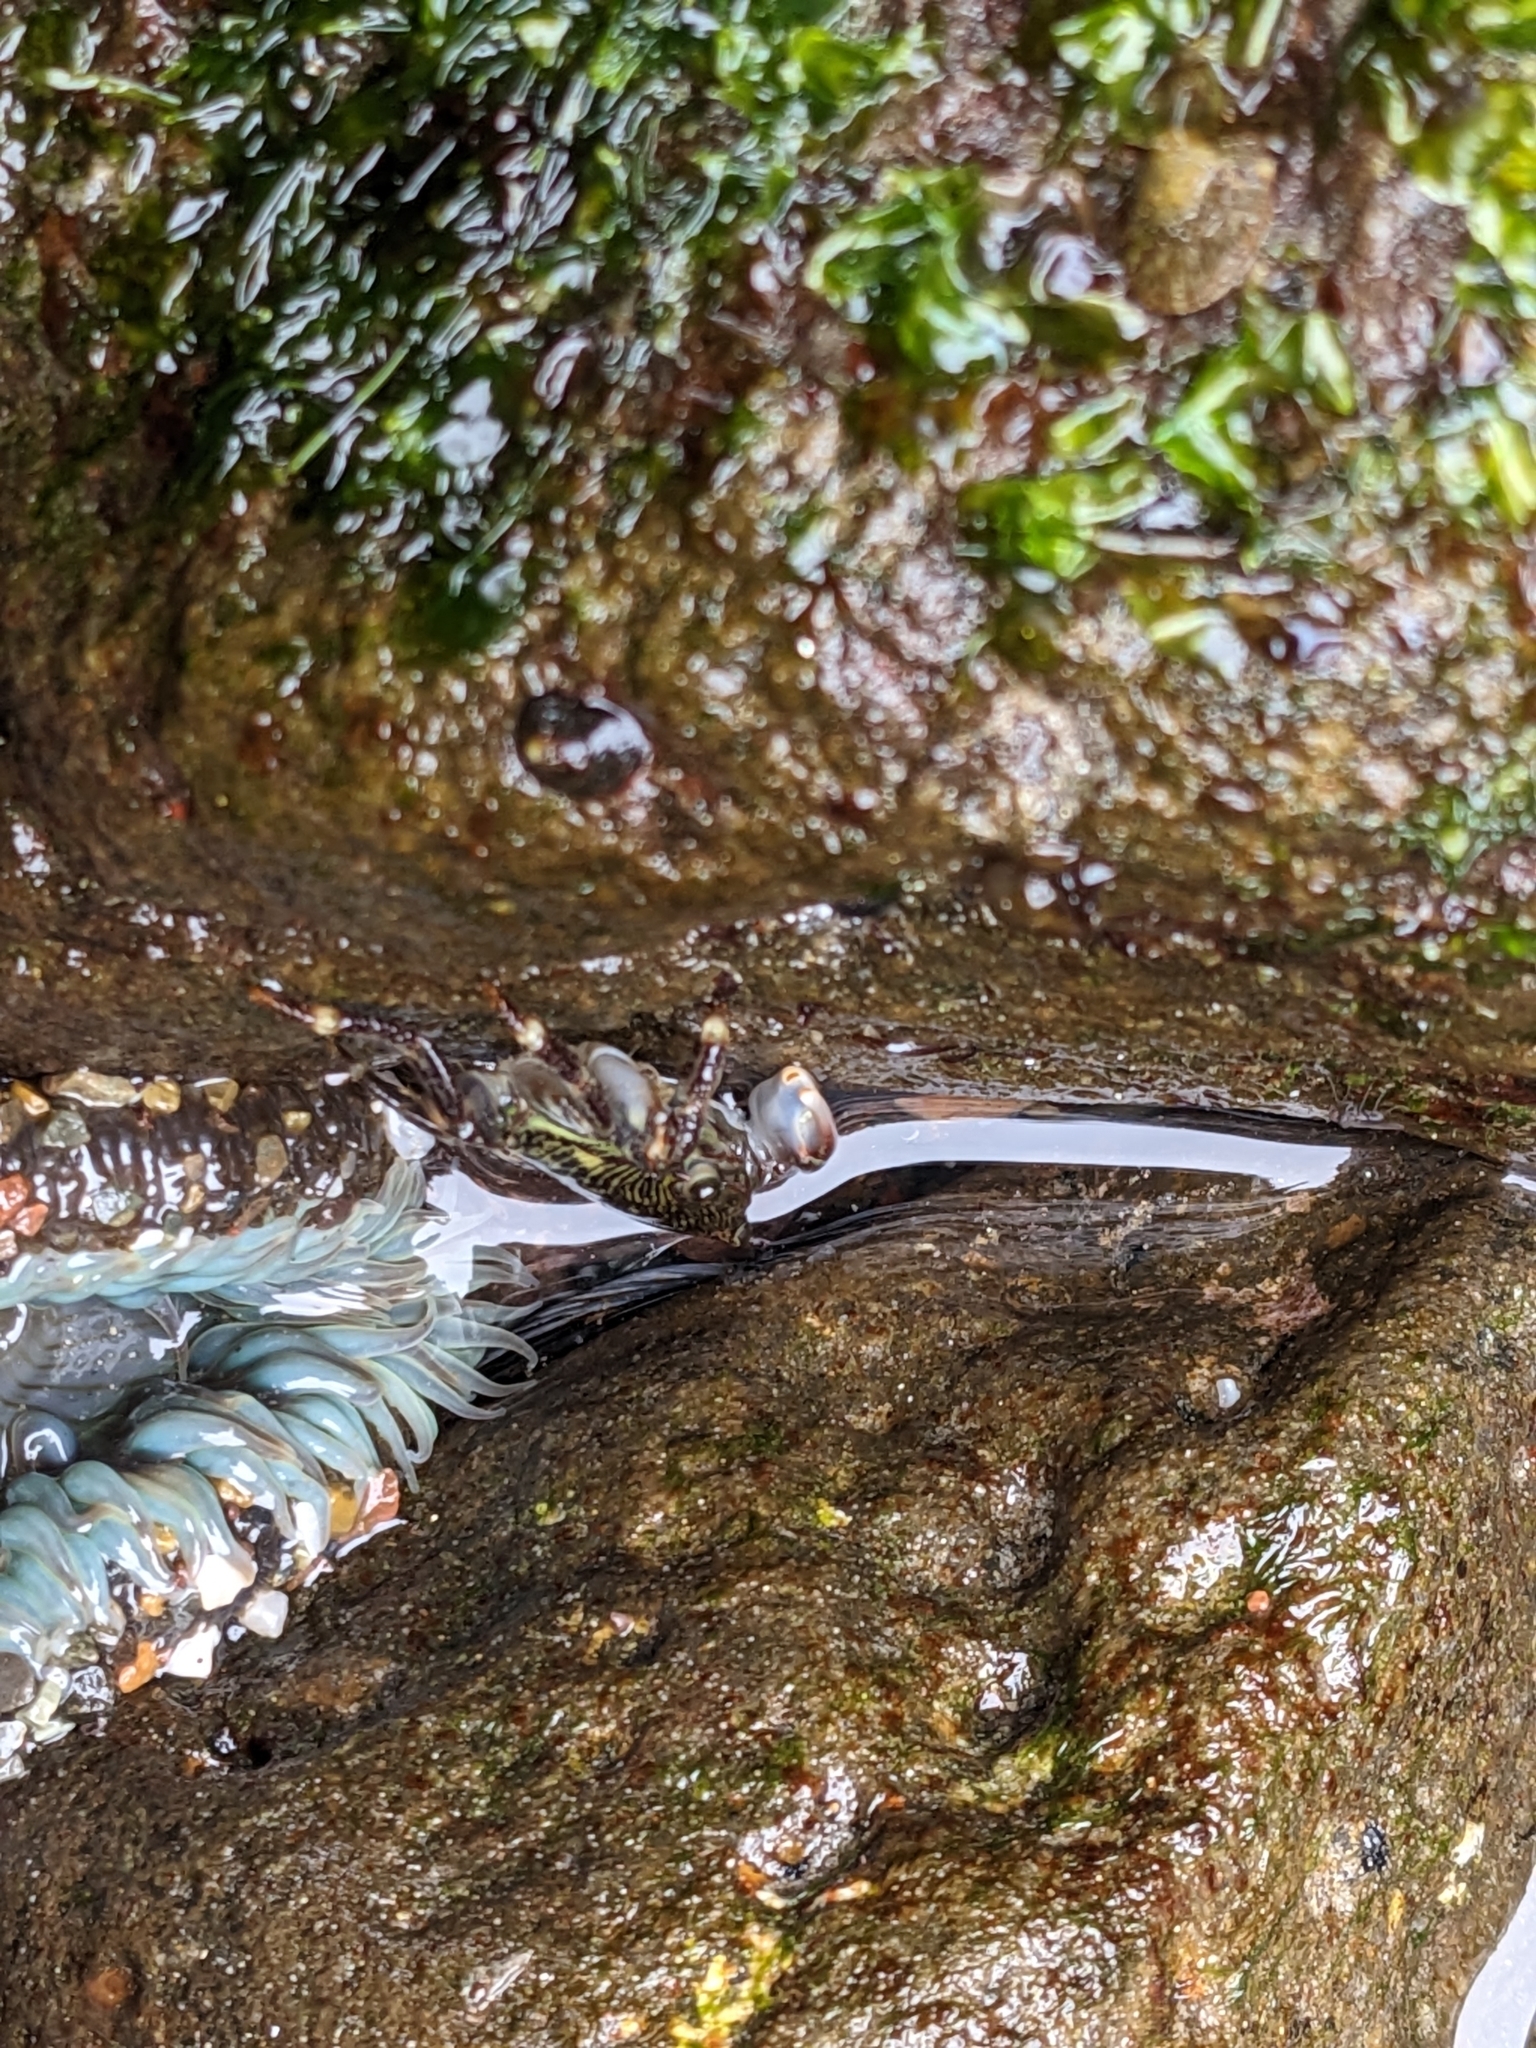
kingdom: Animalia
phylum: Arthropoda
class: Malacostraca
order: Decapoda
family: Grapsidae
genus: Pachygrapsus
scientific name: Pachygrapsus crassipes
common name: Striped shore crab
